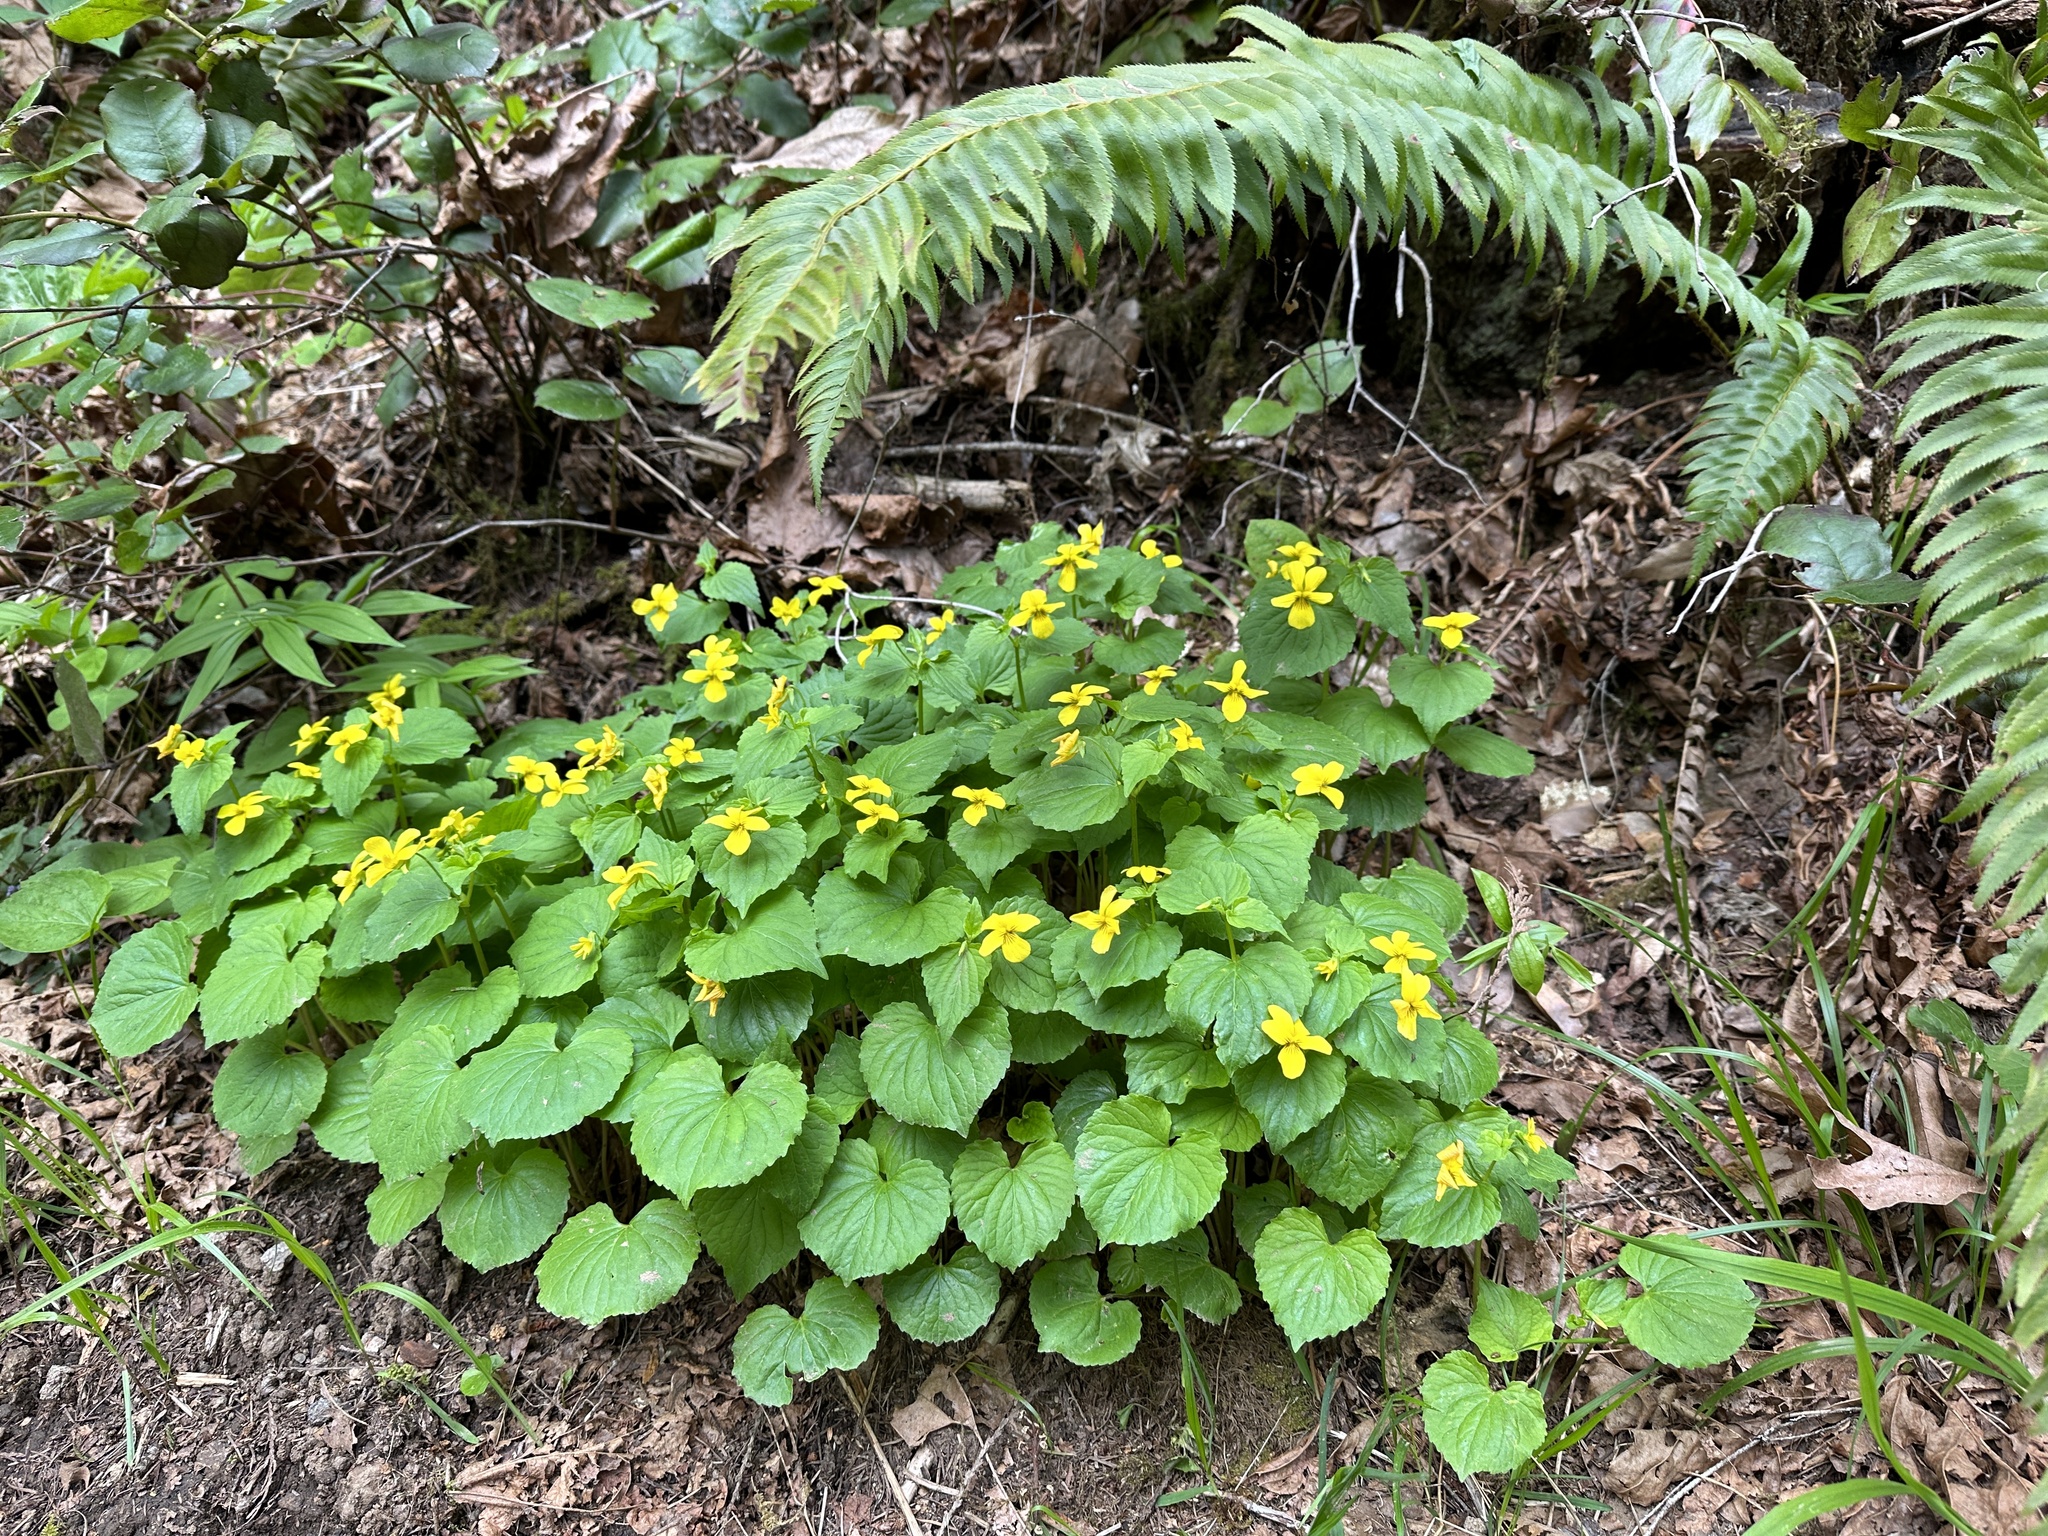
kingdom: Plantae
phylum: Tracheophyta
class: Magnoliopsida
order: Malpighiales
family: Violaceae
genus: Viola
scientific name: Viola glabella
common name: Stream violet
